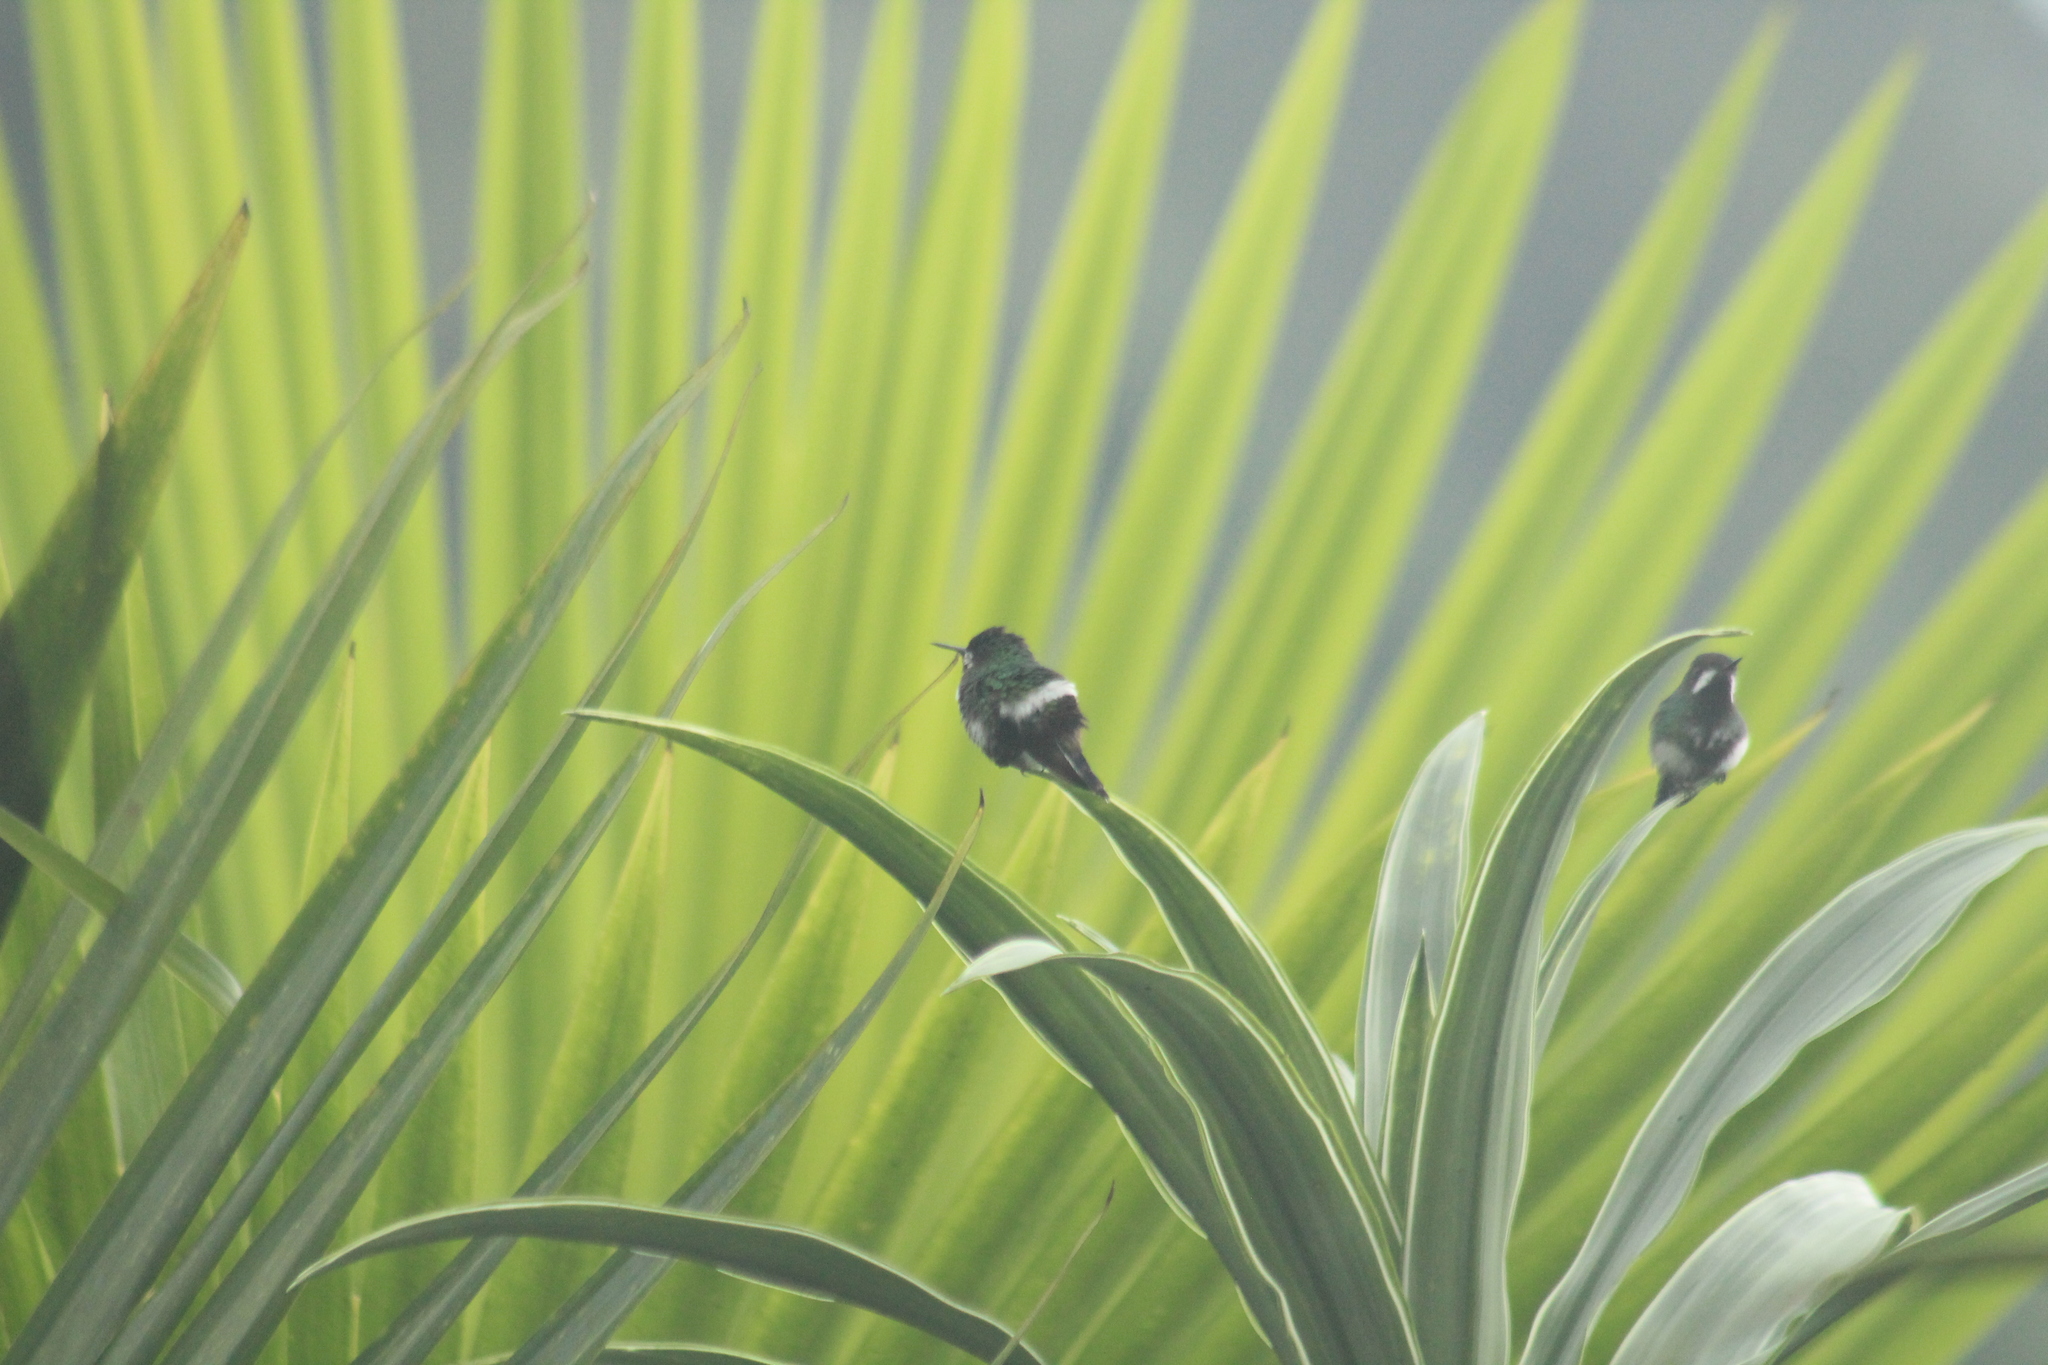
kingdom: Animalia
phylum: Chordata
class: Aves
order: Apodiformes
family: Trochilidae
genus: Discosura
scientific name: Discosura conversii
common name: Green thorntail
